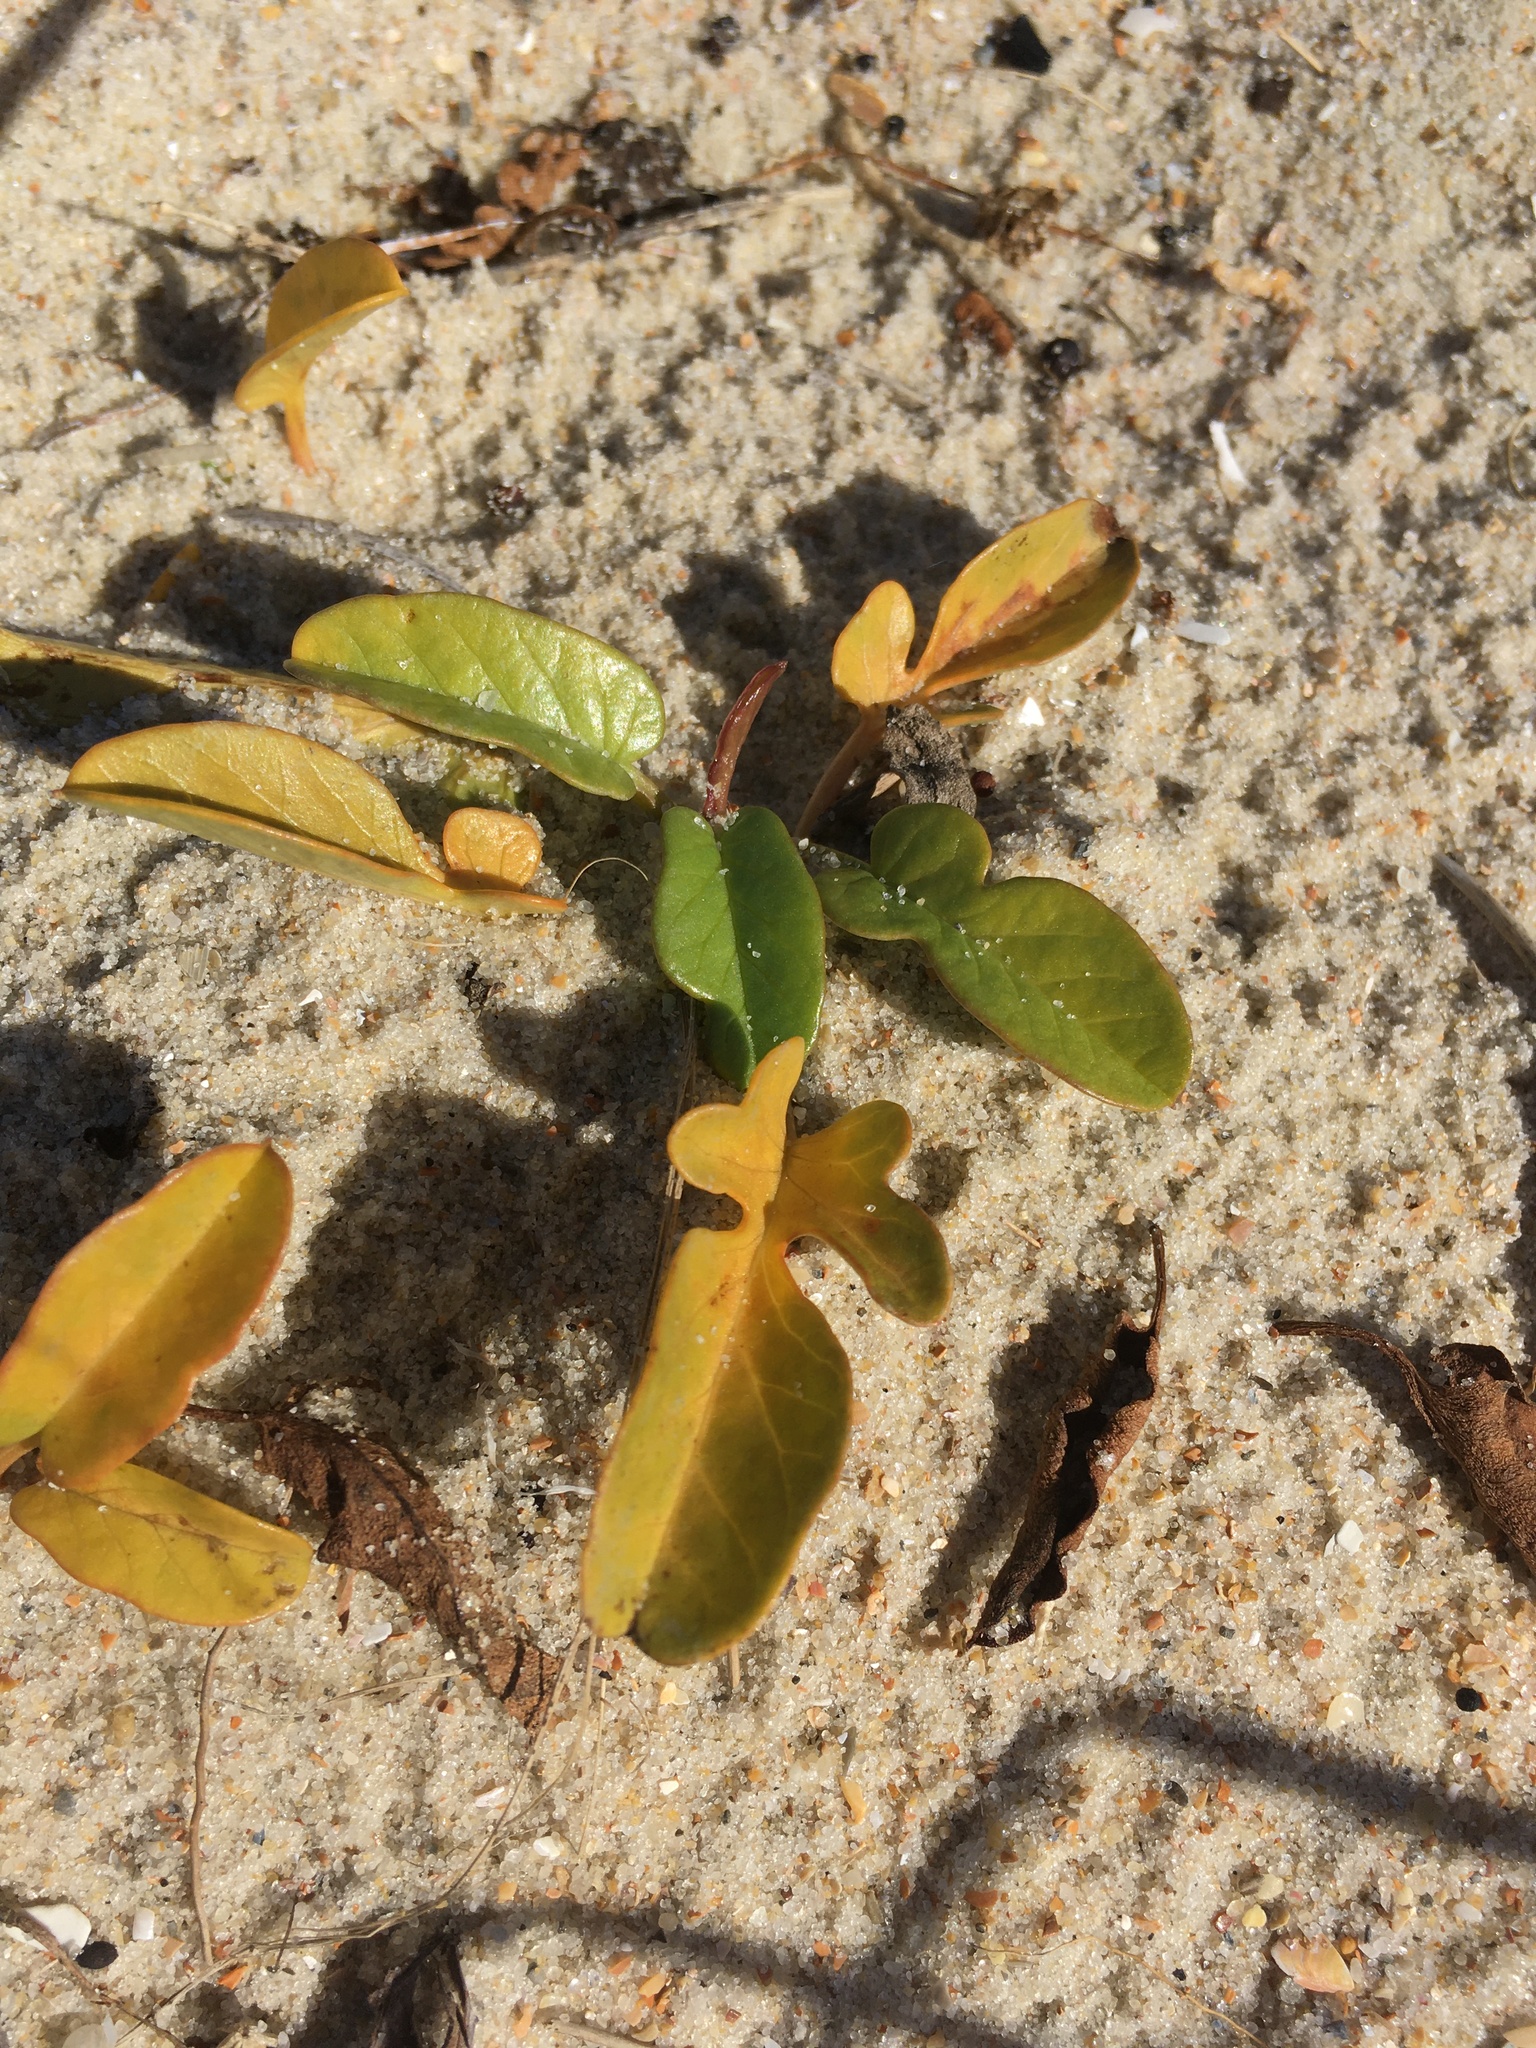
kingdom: Plantae
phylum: Tracheophyta
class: Magnoliopsida
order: Solanales
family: Convolvulaceae
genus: Ipomoea
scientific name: Ipomoea imperati
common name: Fiddle-leaf morning-glory
